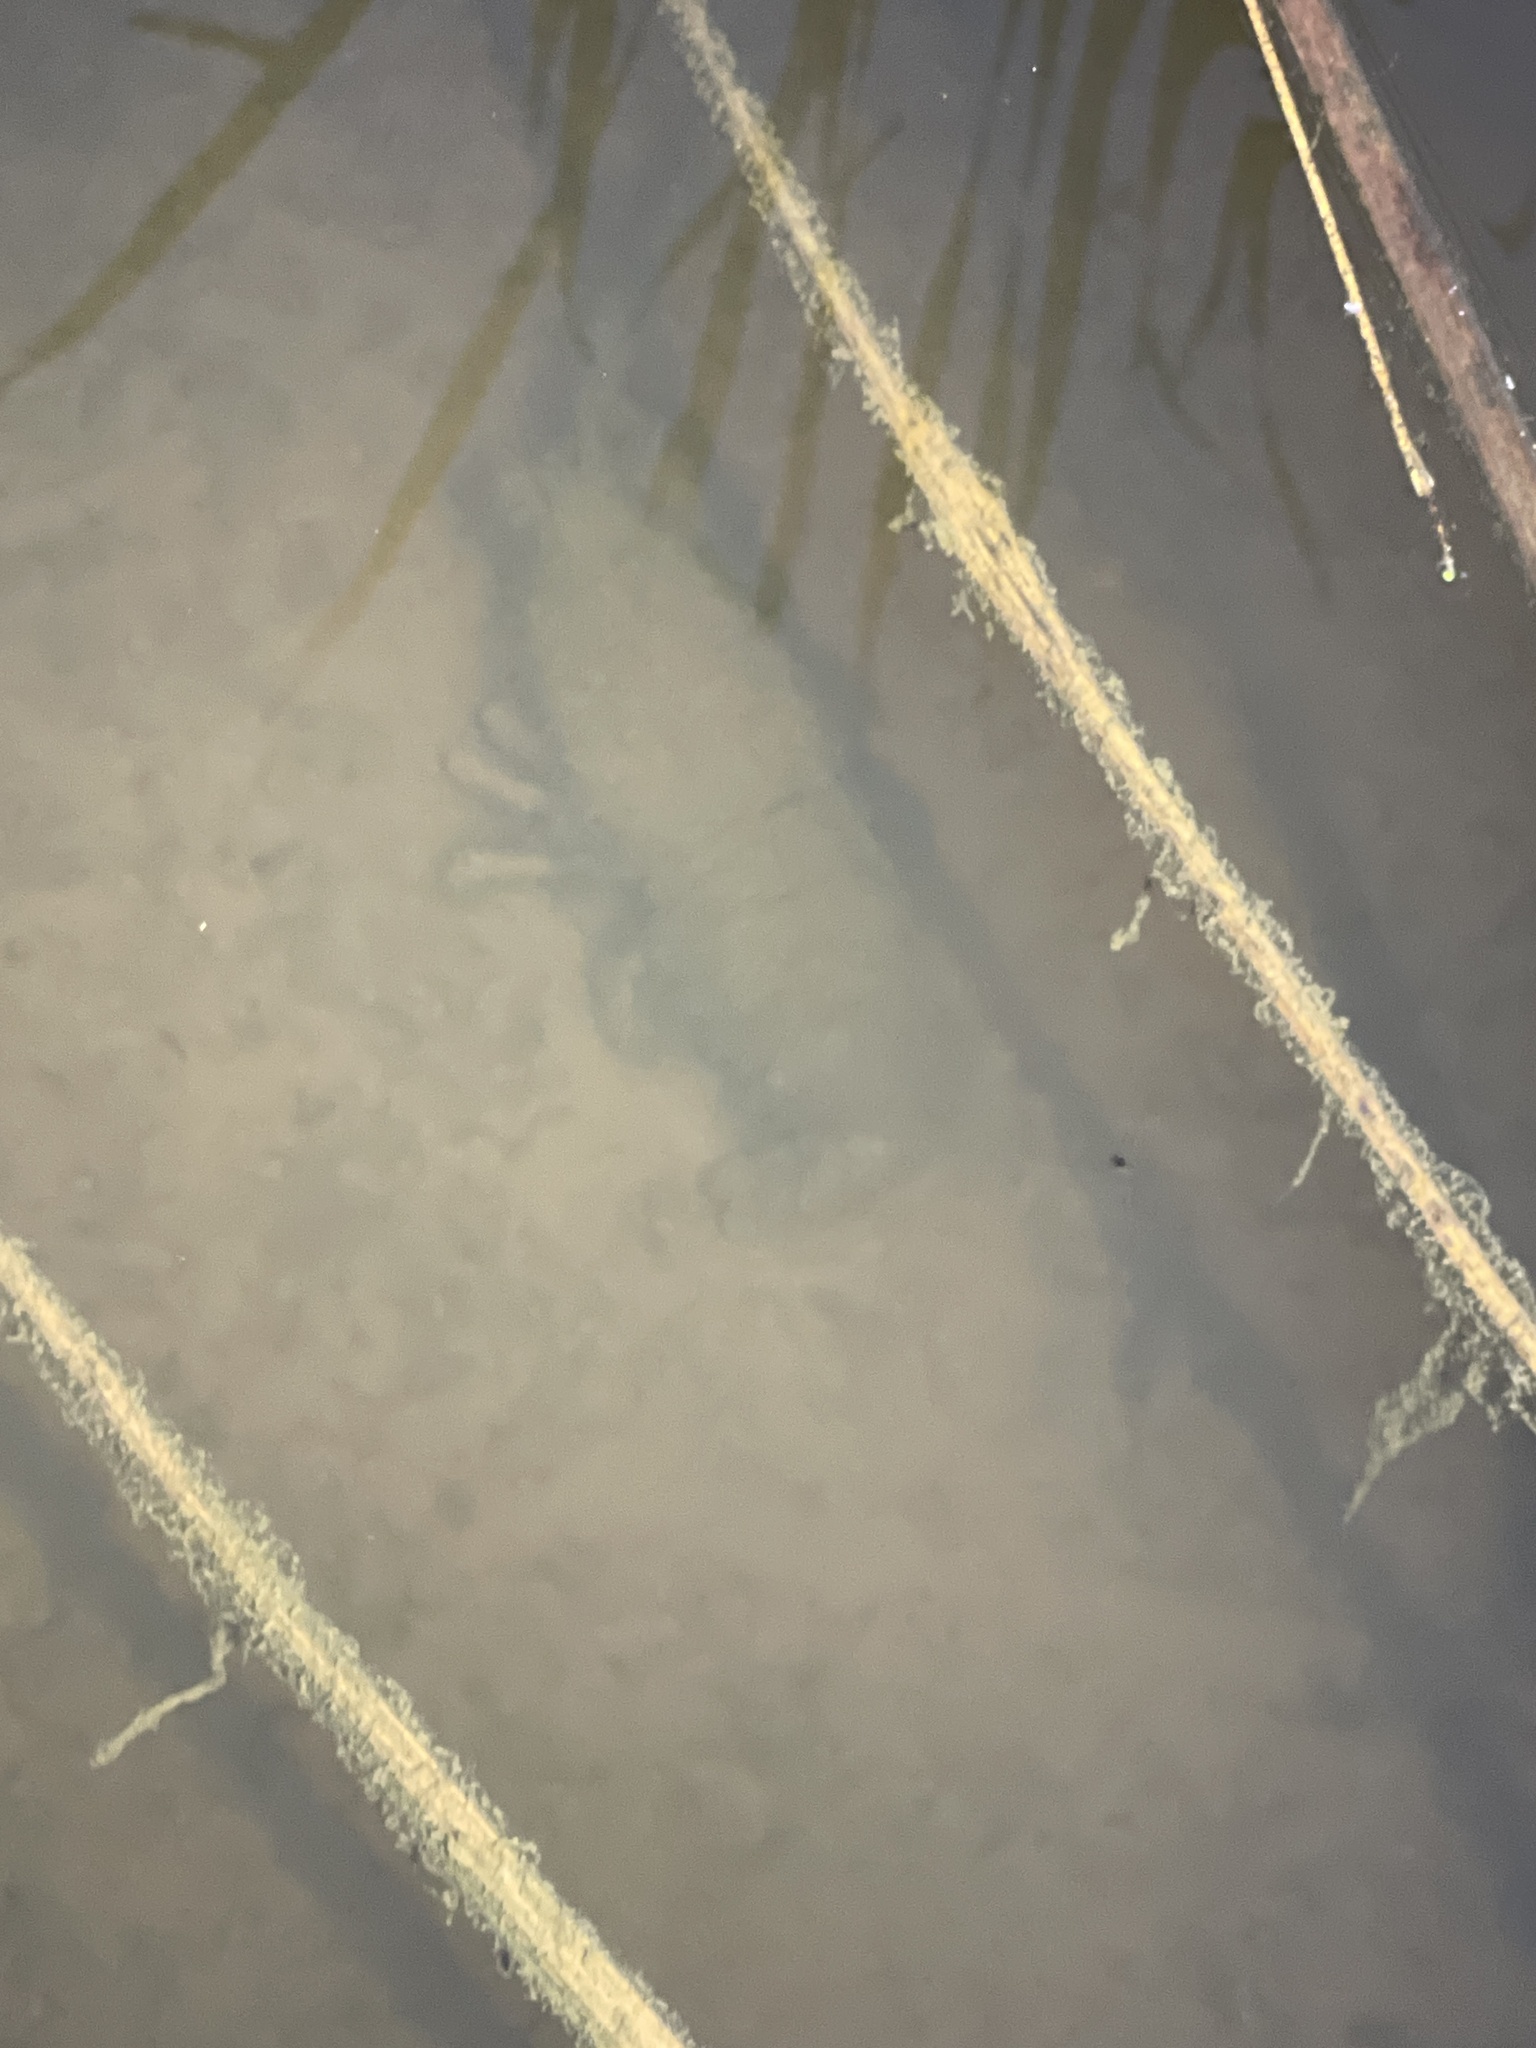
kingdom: Animalia
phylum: Arthropoda
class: Malacostraca
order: Decapoda
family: Parastacidae
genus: Paranephrops
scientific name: Paranephrops zealandicus
